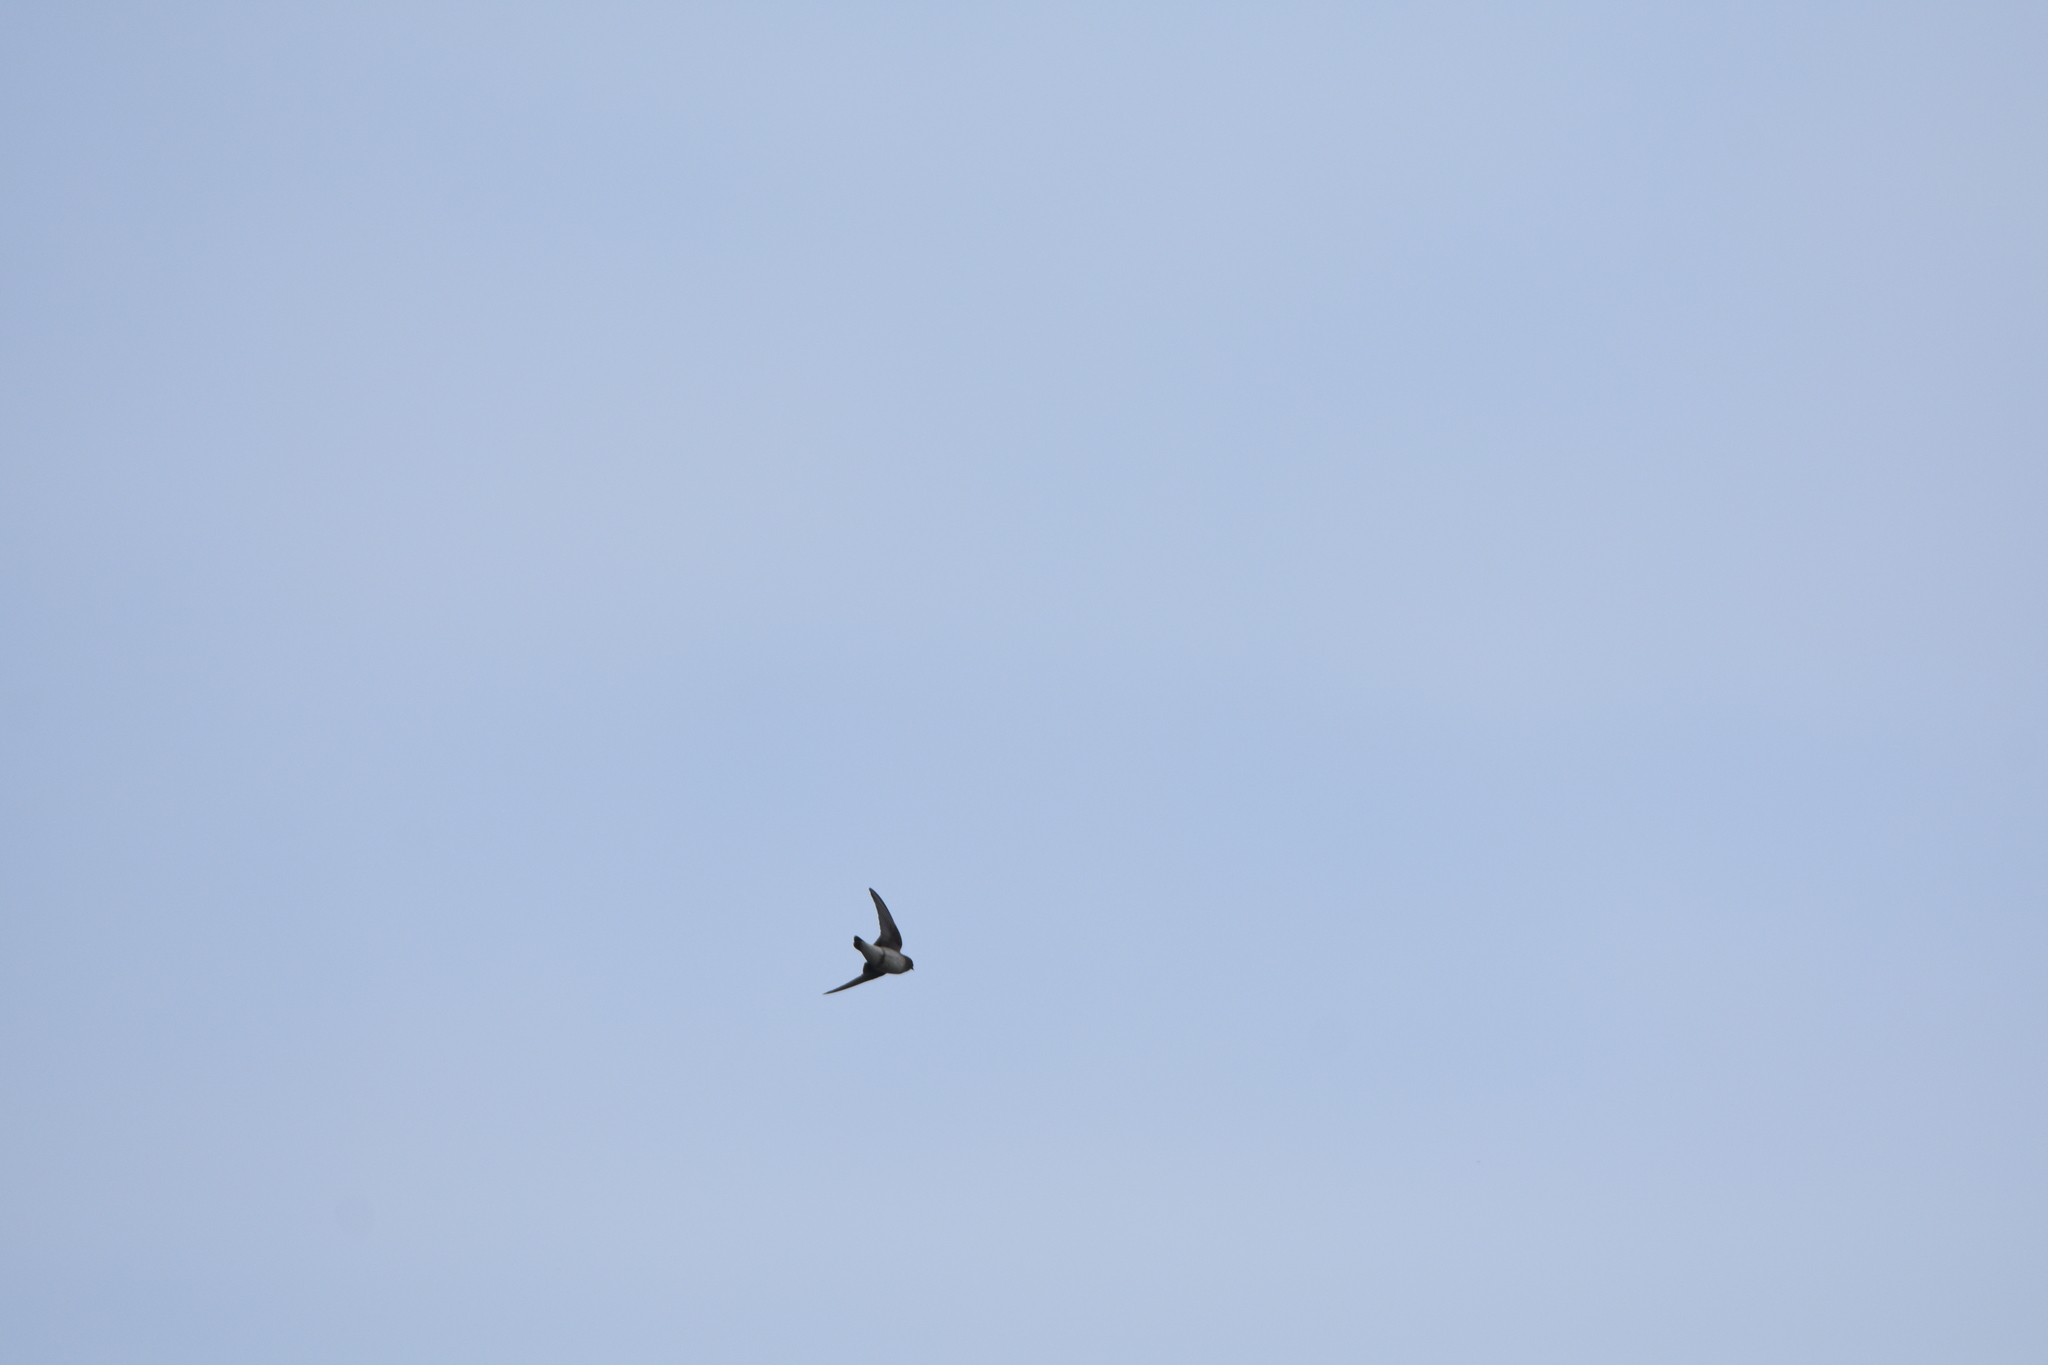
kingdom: Animalia
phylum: Chordata
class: Aves
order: Passeriformes
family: Hirundinidae
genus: Petrochelidon
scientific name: Petrochelidon pyrrhonota
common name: American cliff swallow
